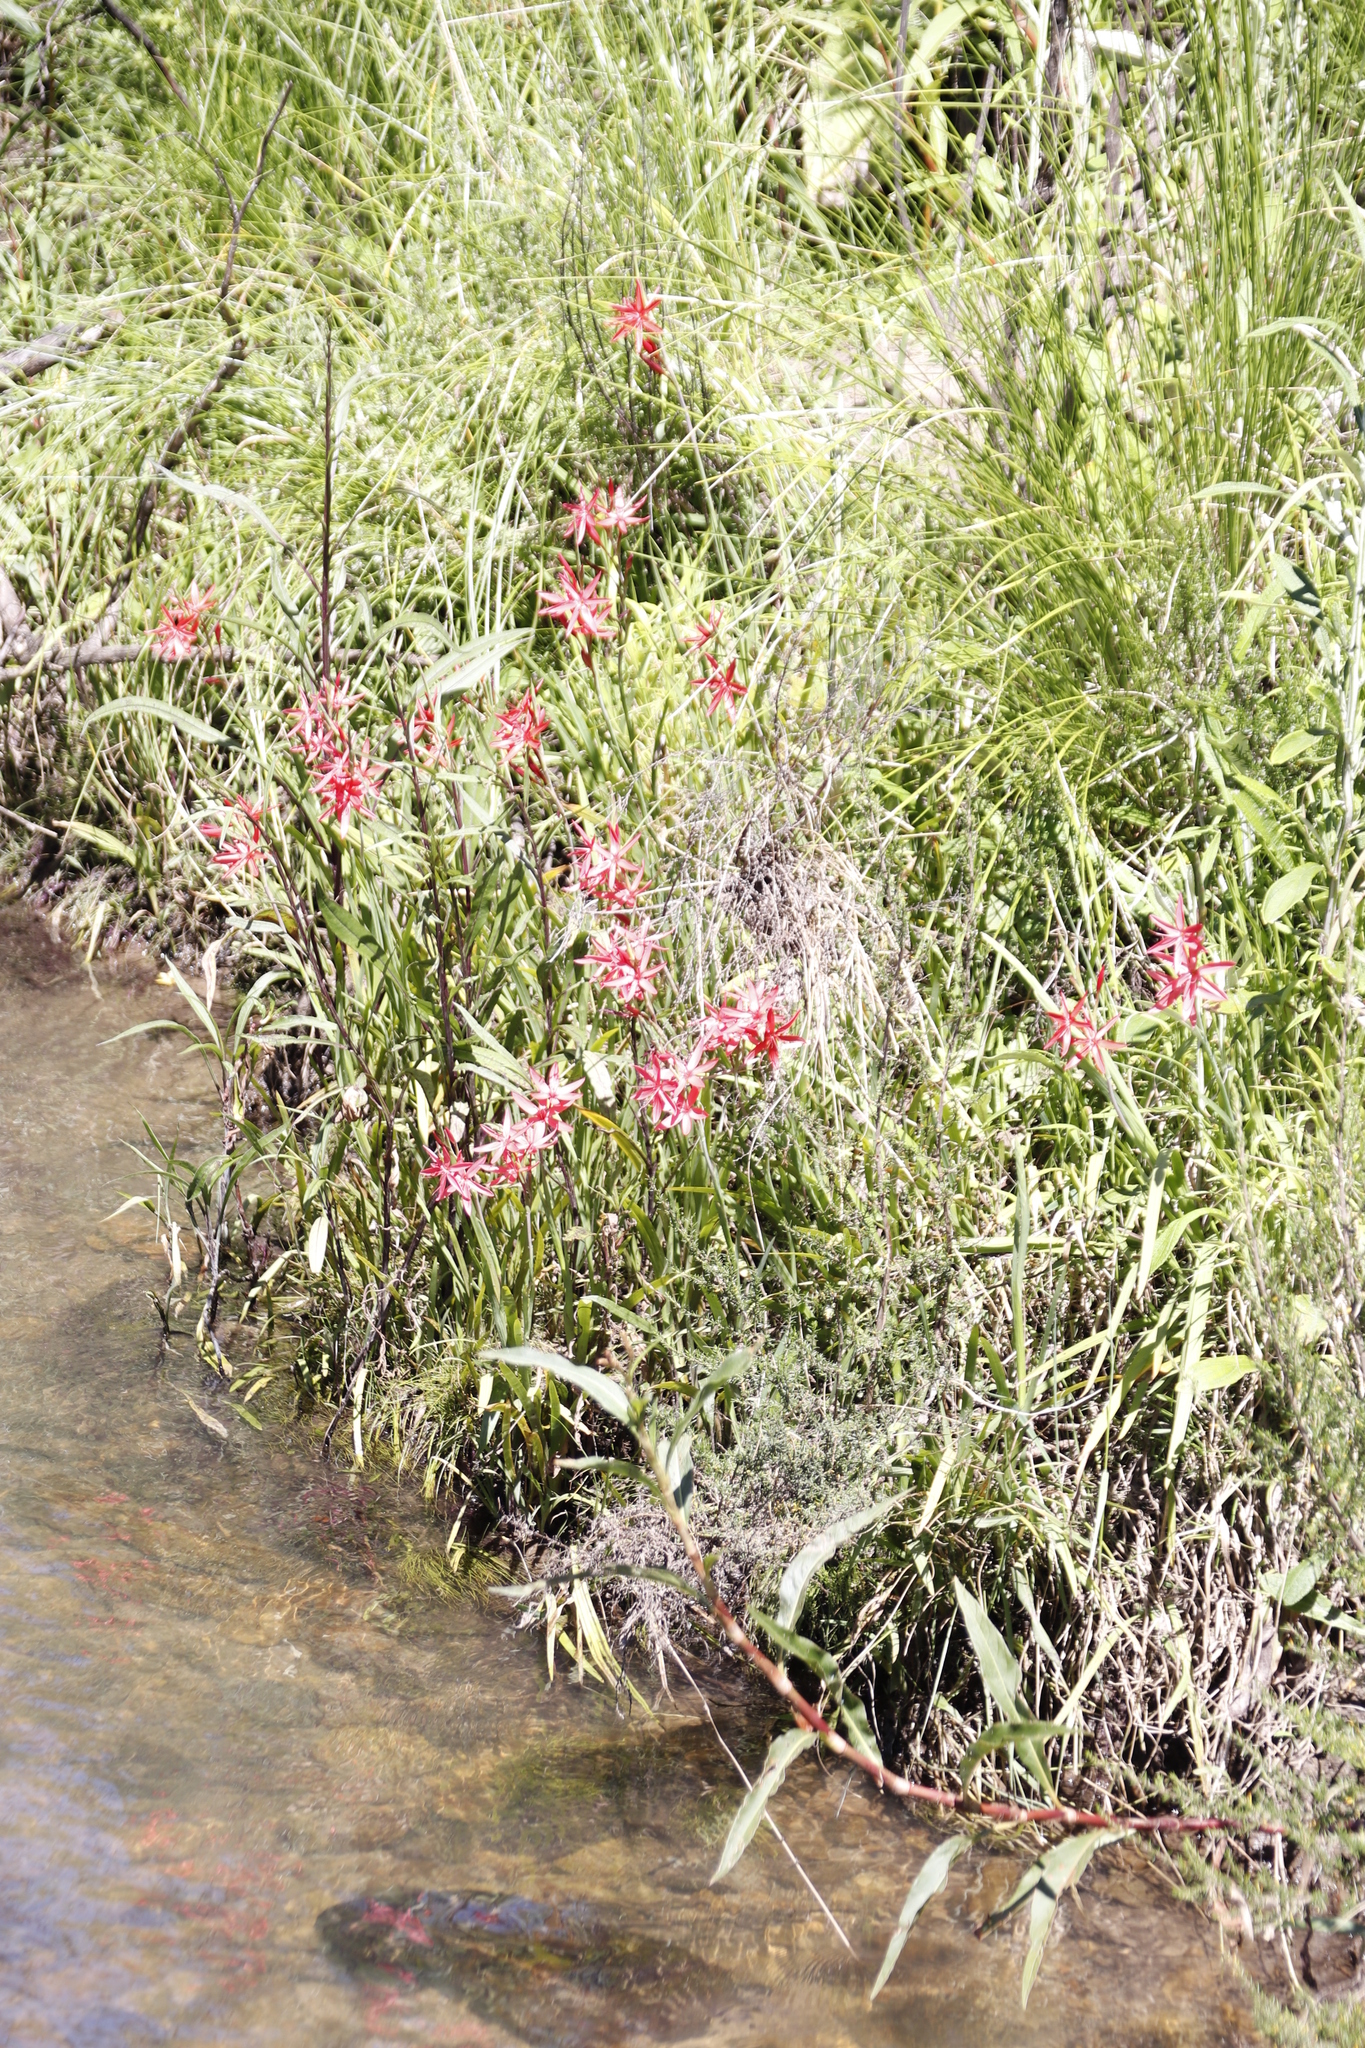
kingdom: Plantae
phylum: Tracheophyta
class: Liliopsida
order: Asparagales
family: Iridaceae
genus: Hesperantha
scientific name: Hesperantha coccinea
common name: River-lily
